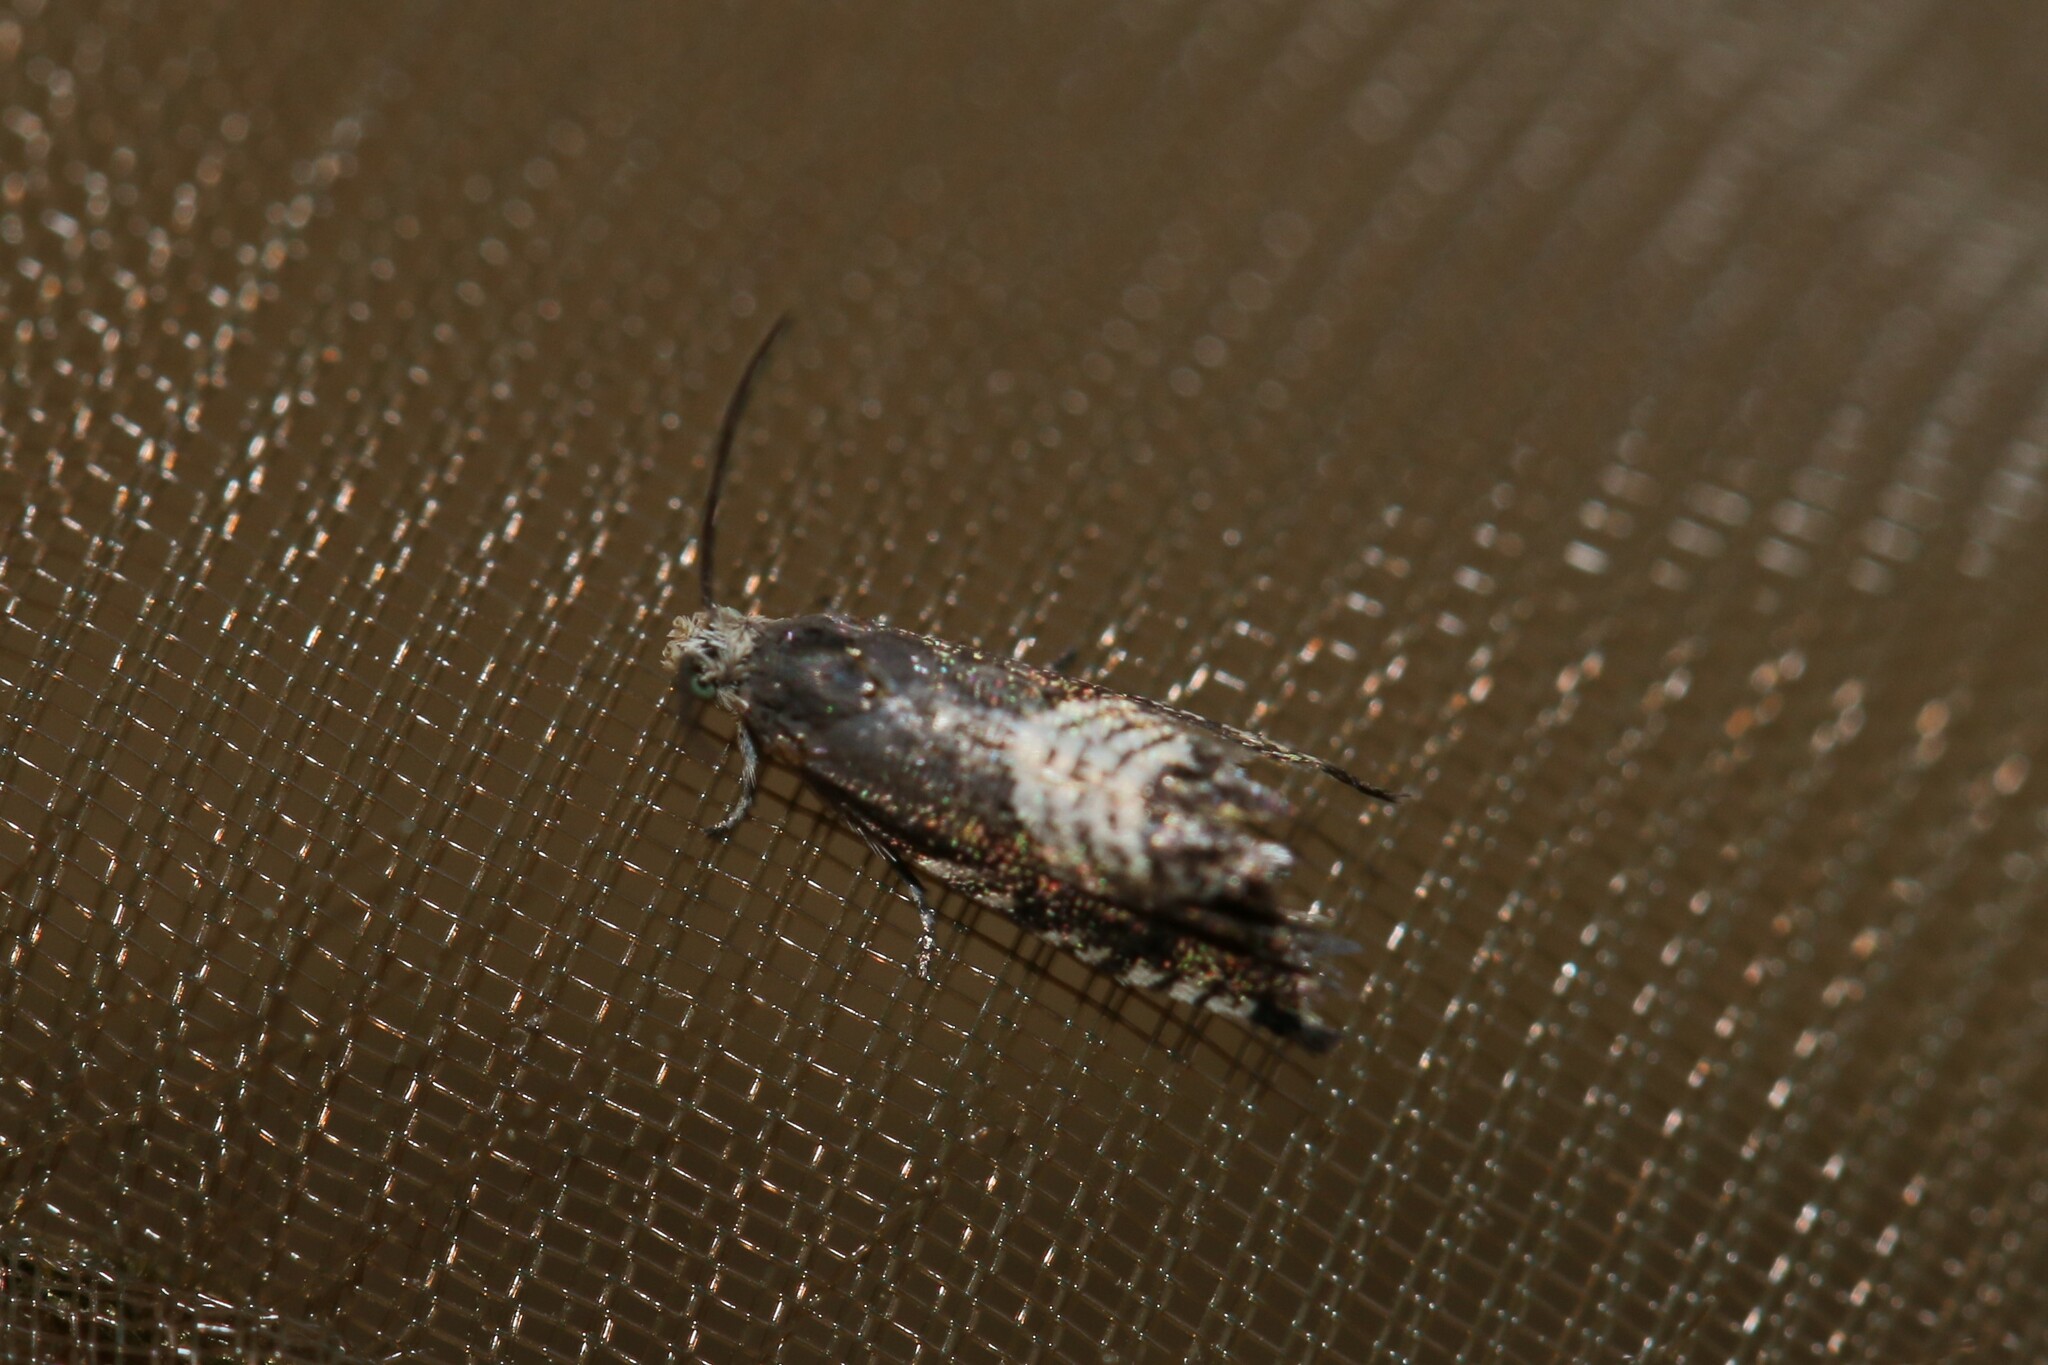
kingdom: Animalia
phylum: Arthropoda
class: Insecta
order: Lepidoptera
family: Tortricidae
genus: Grapholita
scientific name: Grapholita compositella
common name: Triple-stripe piercer
